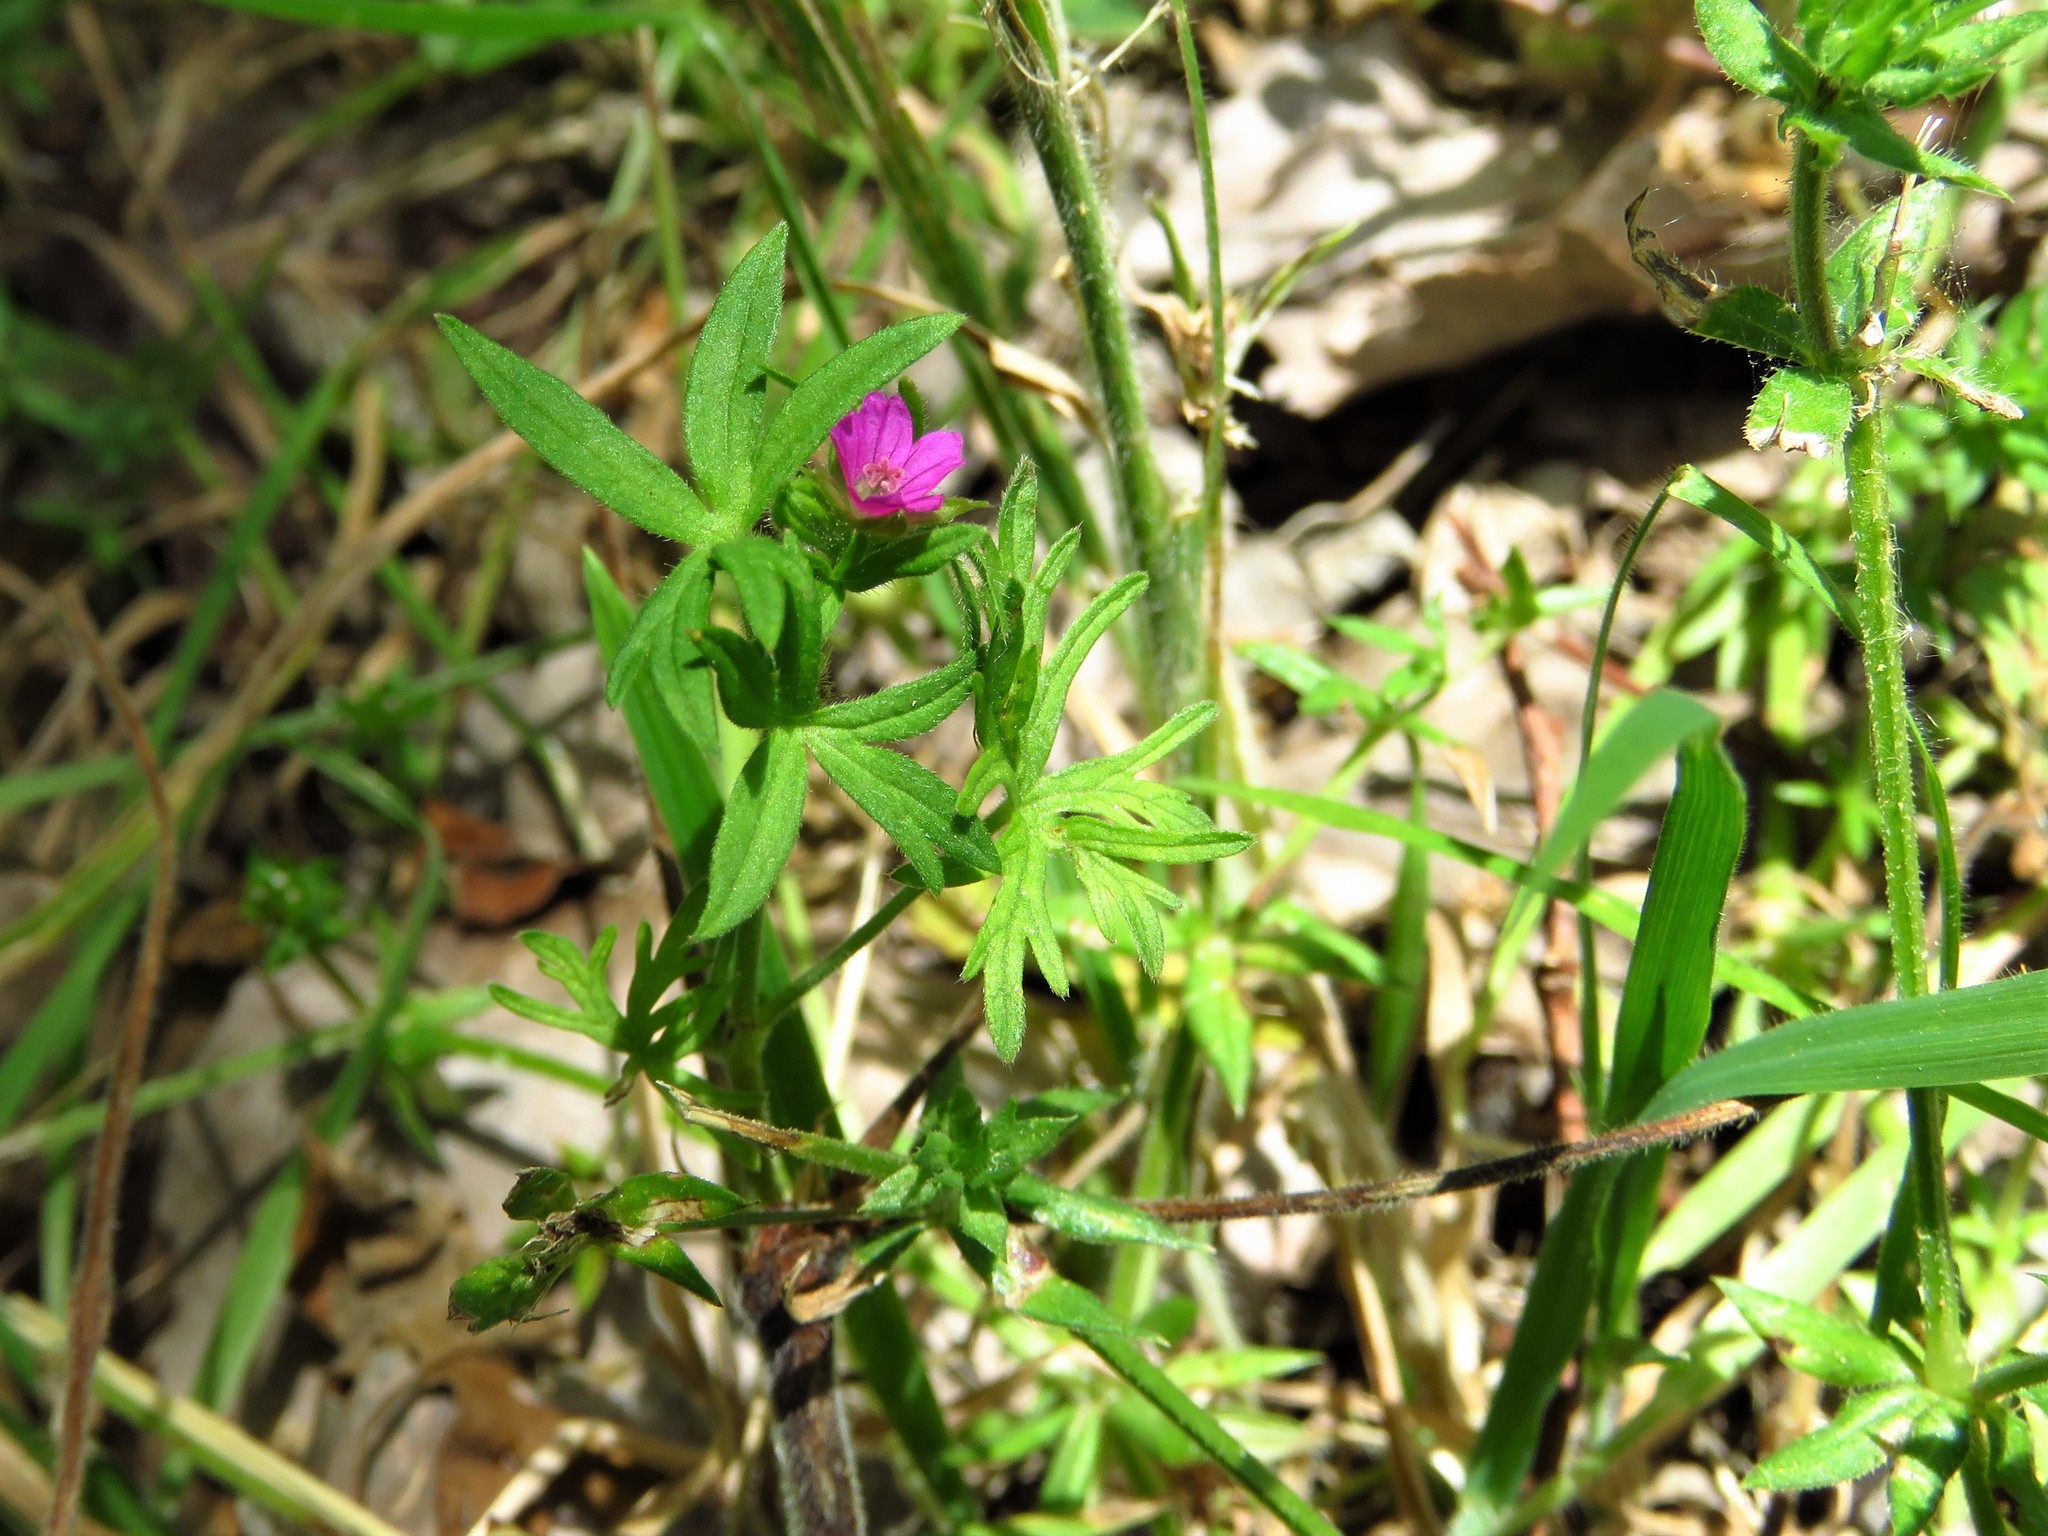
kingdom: Plantae
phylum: Tracheophyta
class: Magnoliopsida
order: Geraniales
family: Geraniaceae
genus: Geranium
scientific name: Geranium dissectum
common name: Cut-leaved crane's-bill
